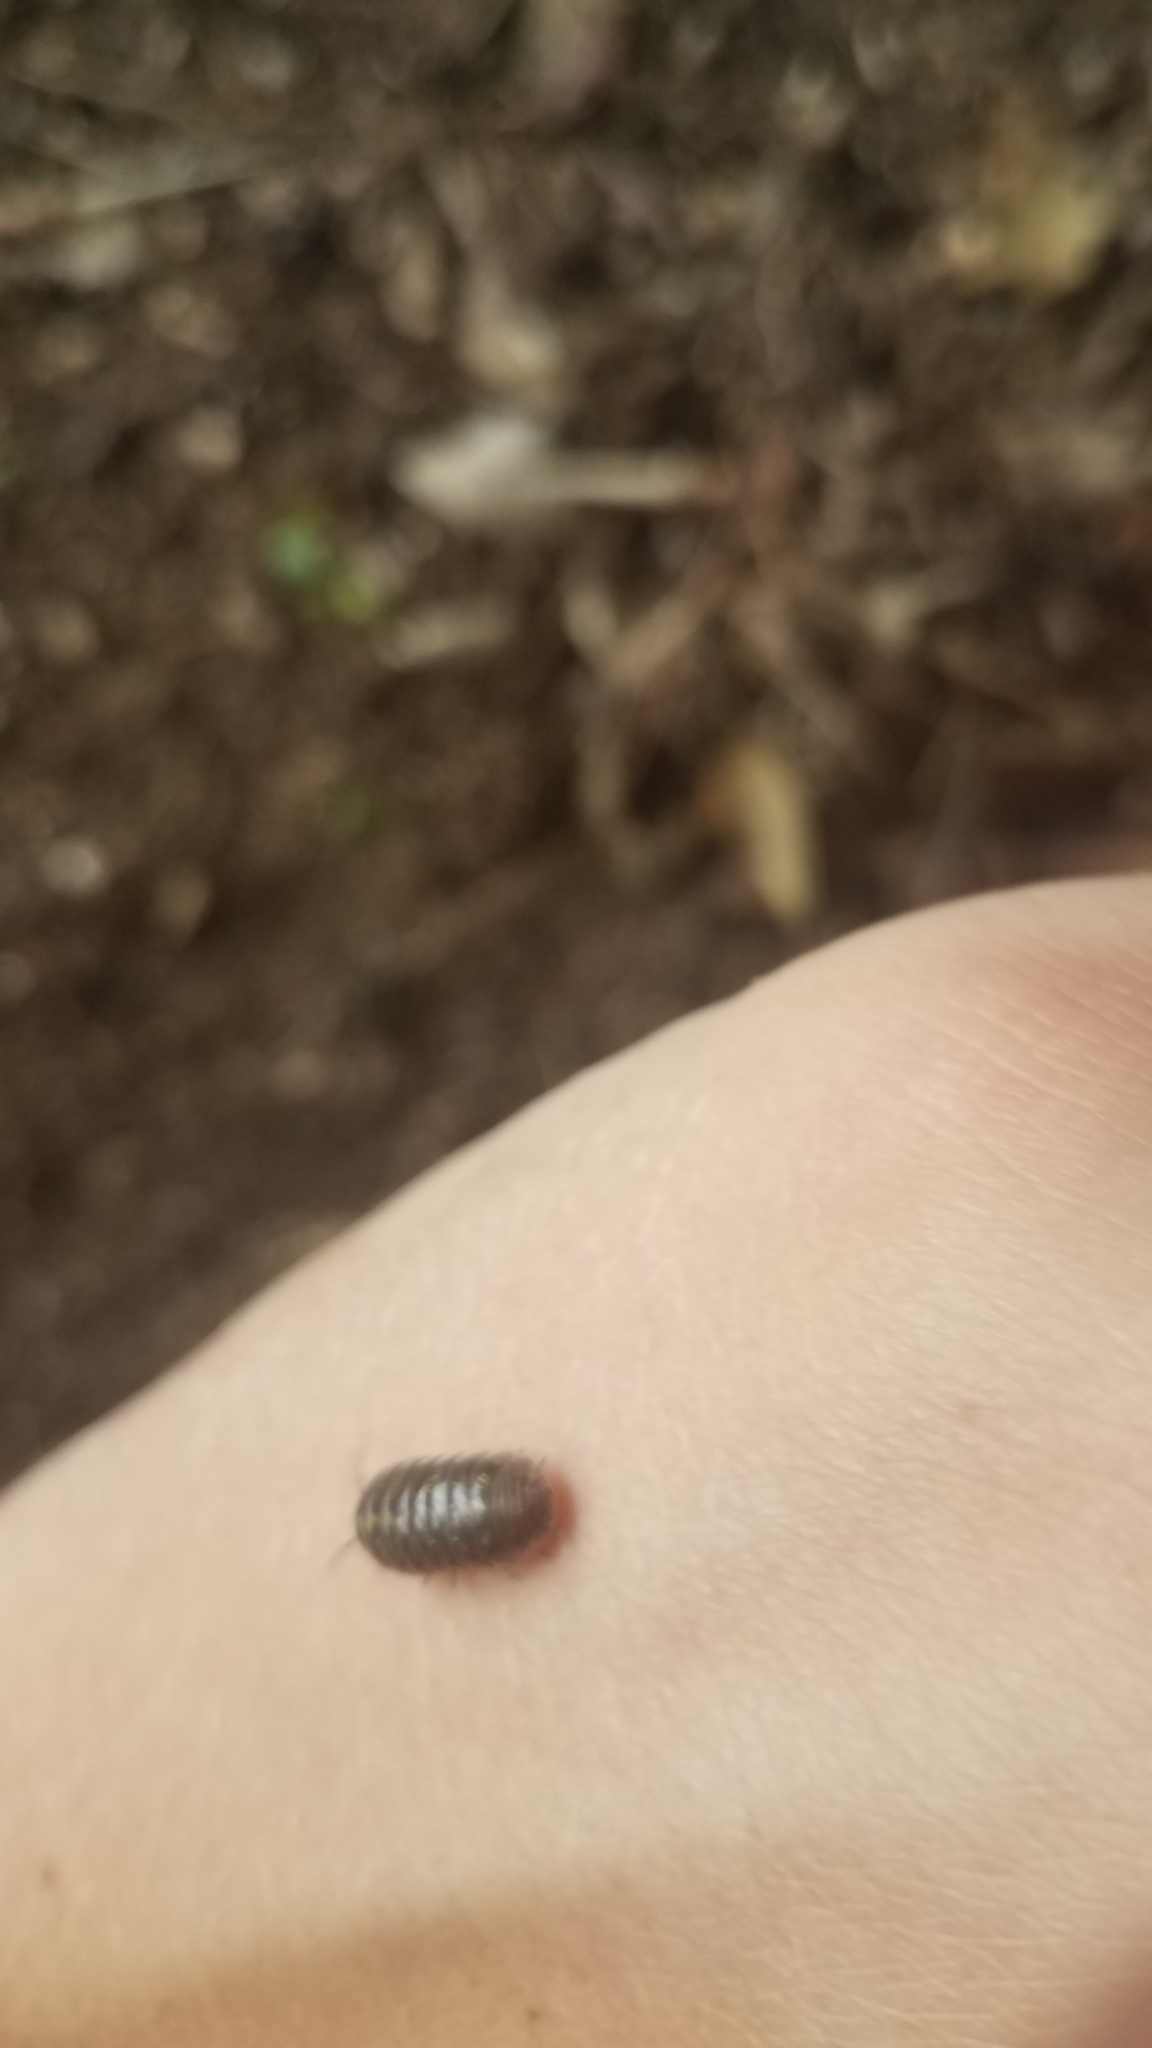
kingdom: Animalia
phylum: Arthropoda
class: Malacostraca
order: Isopoda
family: Armadillidiidae
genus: Armadillidium
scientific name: Armadillidium vulgare
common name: Common pill woodlouse
